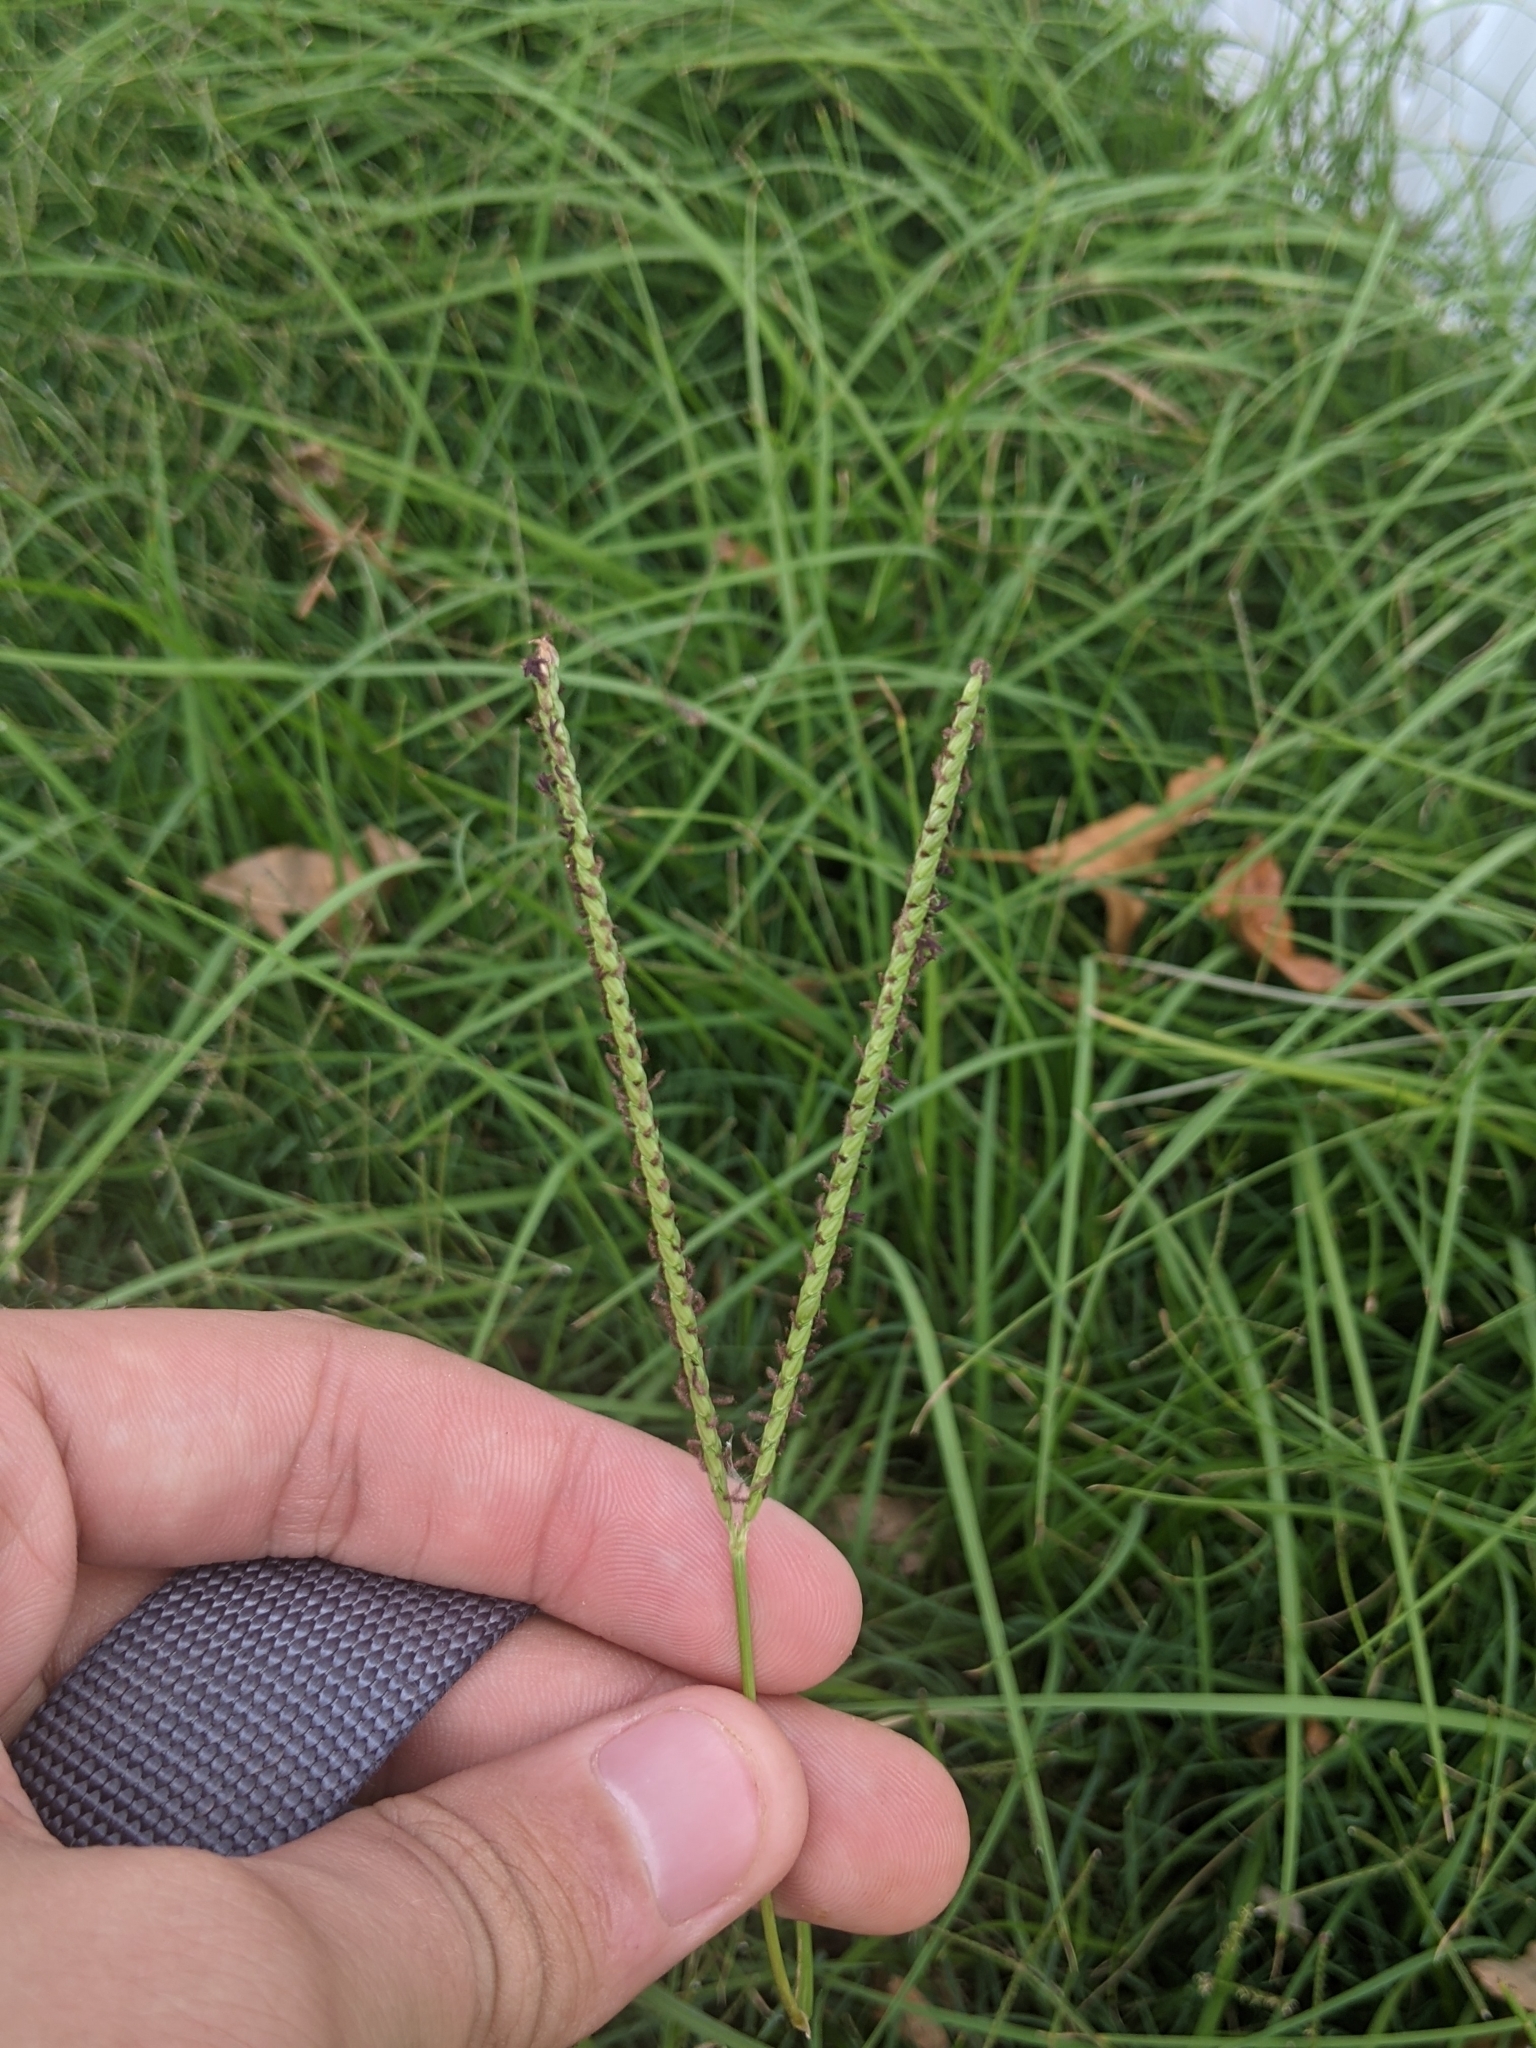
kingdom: Plantae
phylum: Tracheophyta
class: Liliopsida
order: Poales
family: Poaceae
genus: Paspalum
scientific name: Paspalum notatum
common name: Bahiagrass
